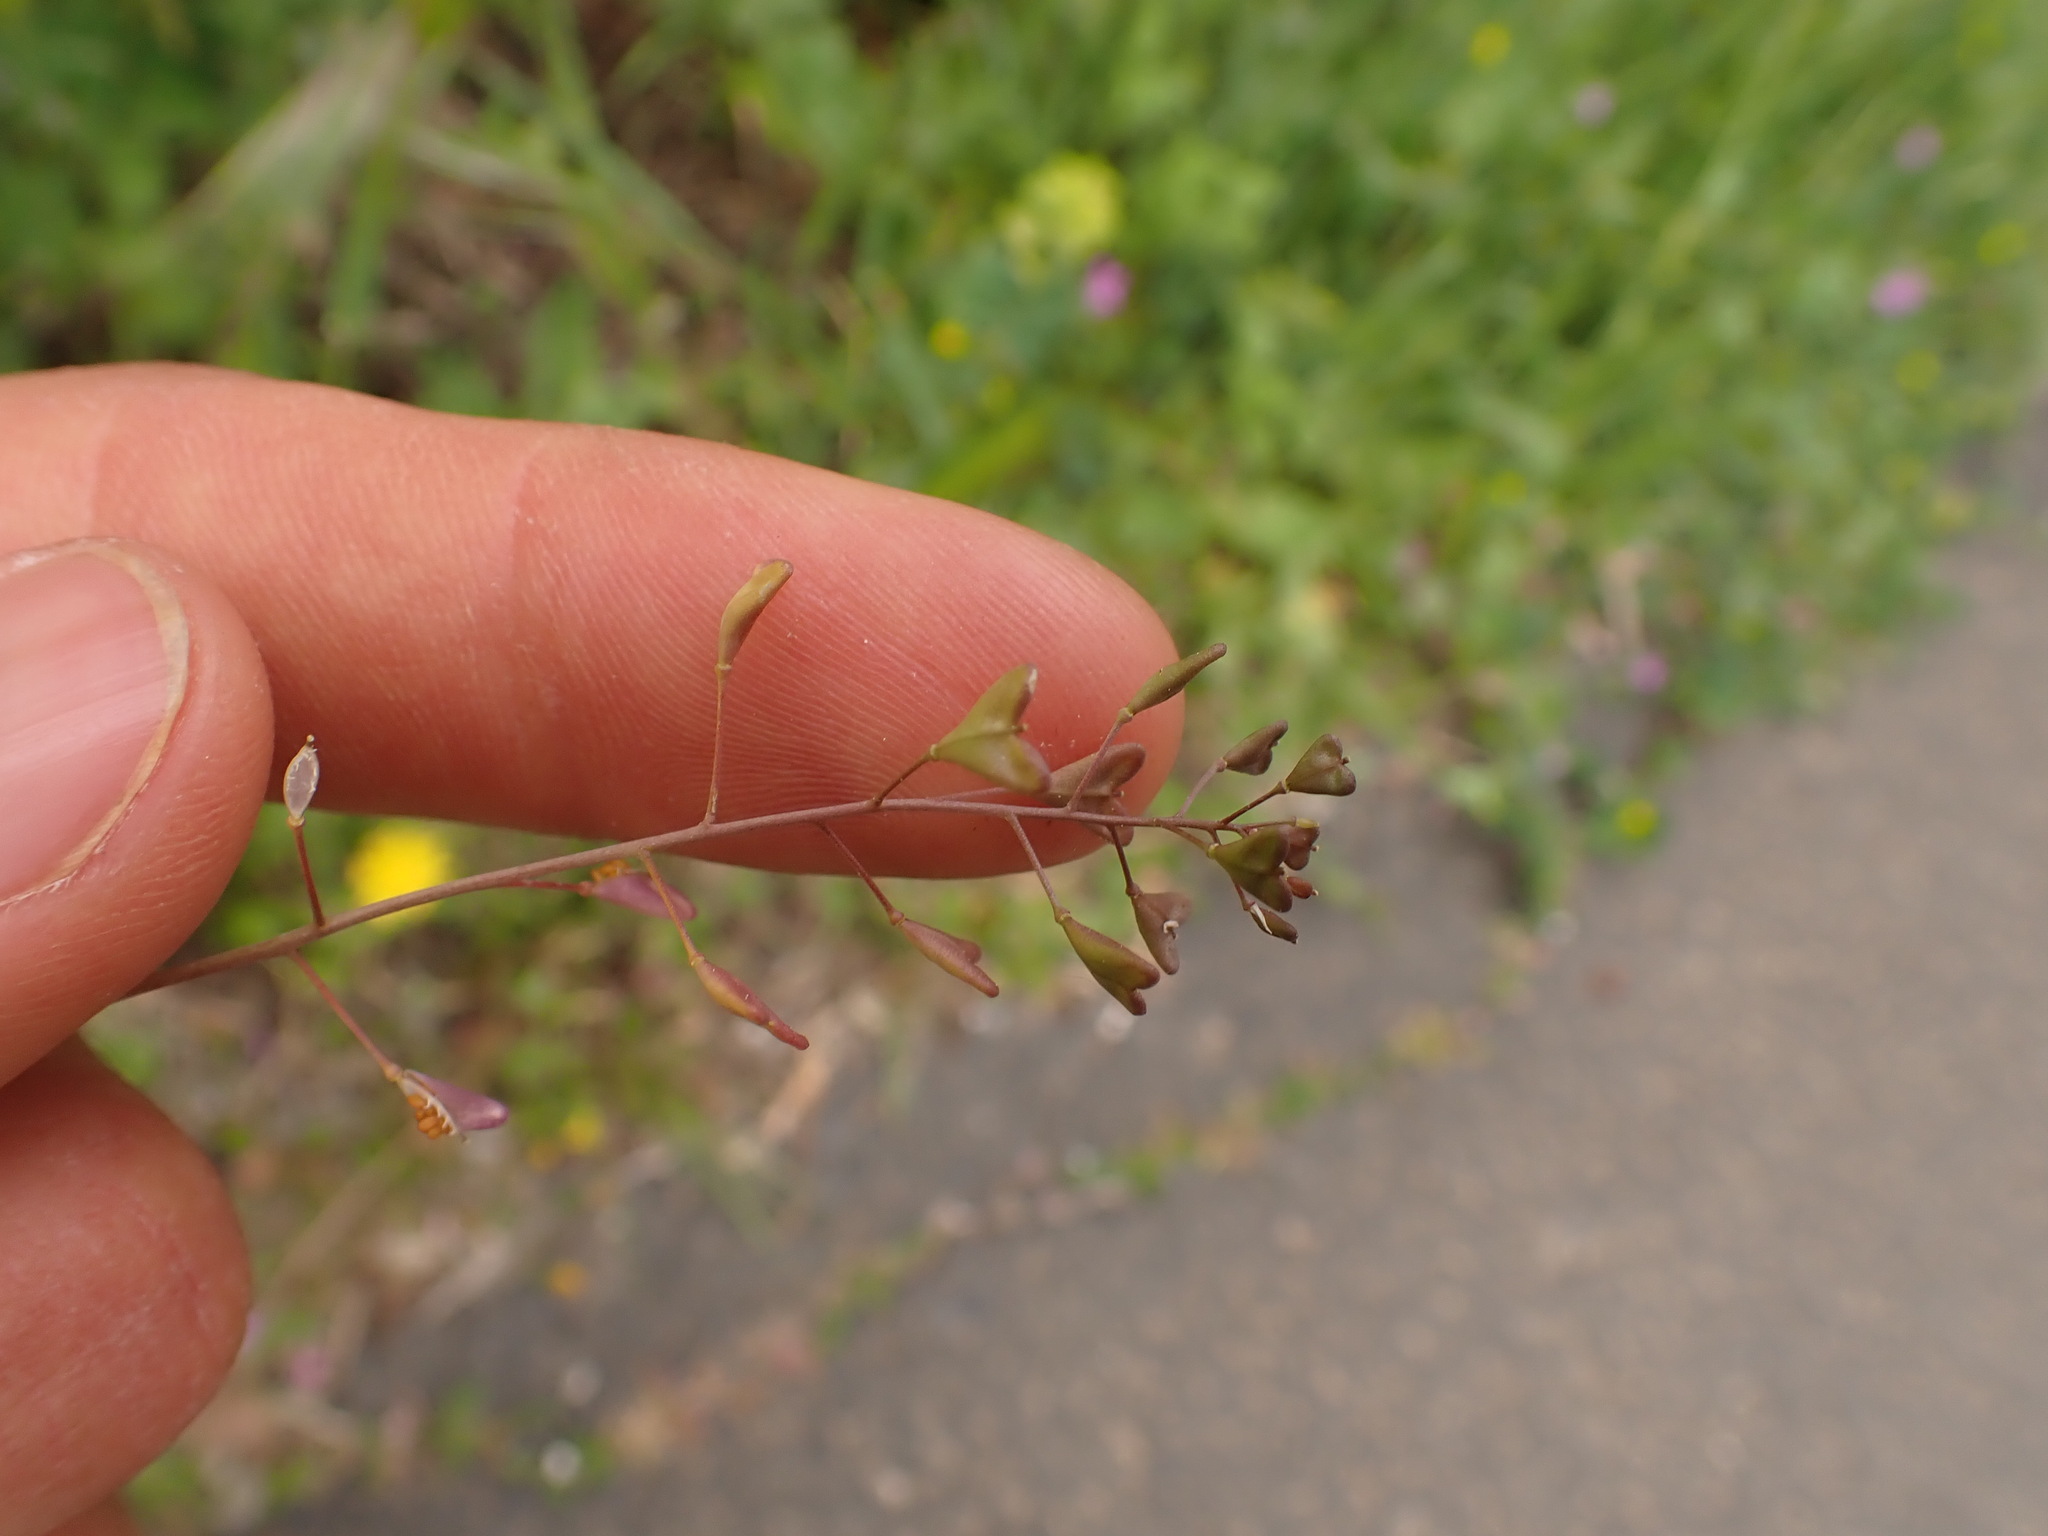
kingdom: Plantae
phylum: Tracheophyta
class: Magnoliopsida
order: Brassicales
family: Brassicaceae
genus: Capsella
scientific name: Capsella bursa-pastoris
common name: Shepherd's purse
